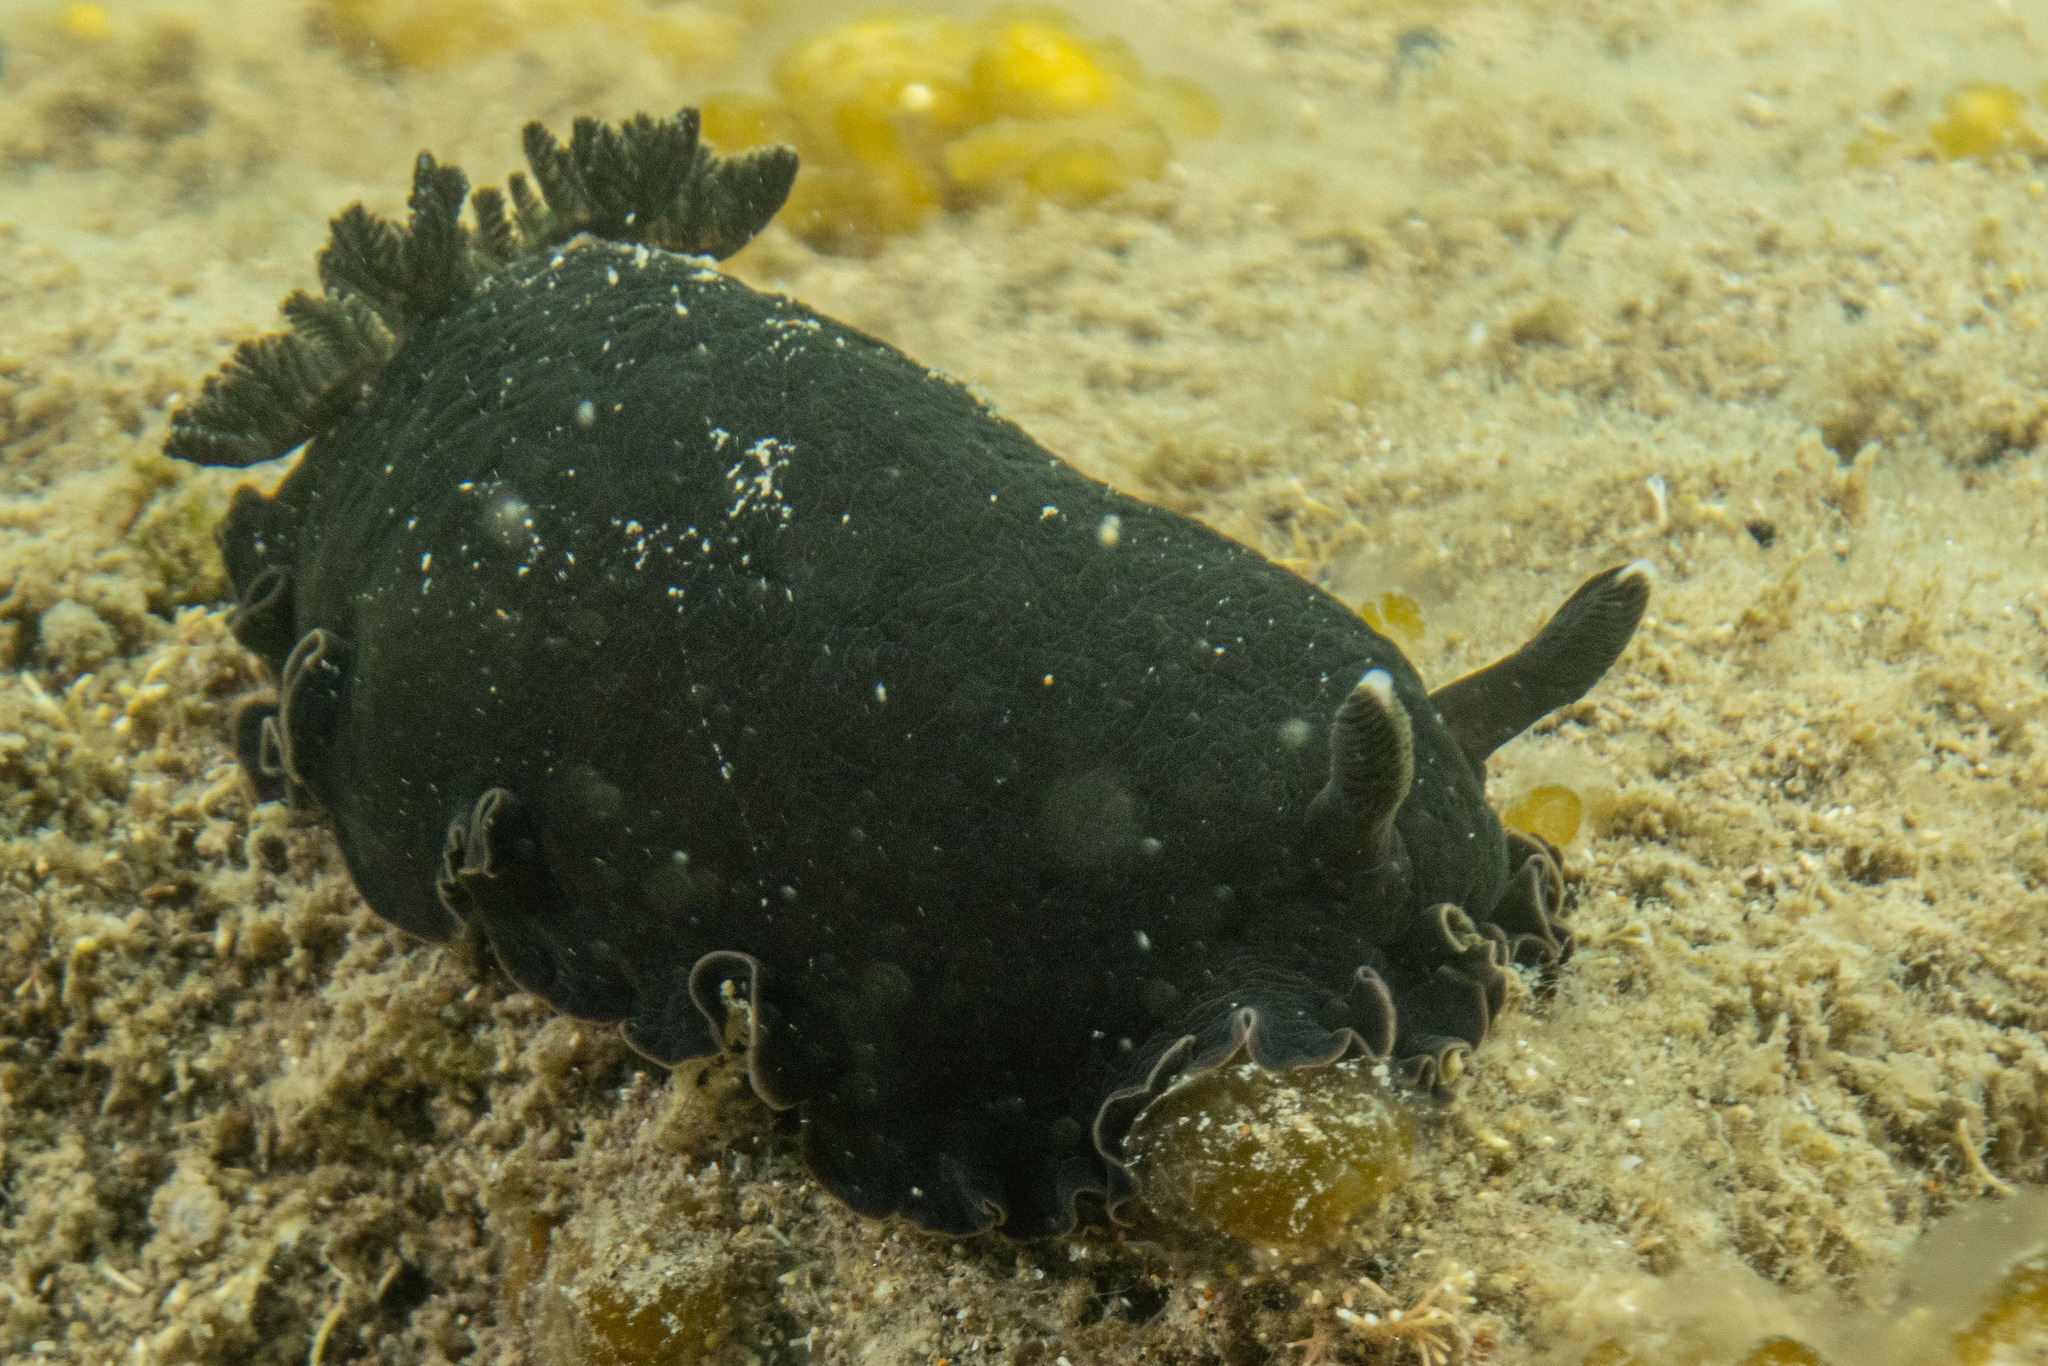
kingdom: Animalia
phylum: Mollusca
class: Gastropoda
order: Nudibranchia
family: Dendrodorididae
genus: Dendrodoris
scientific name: Dendrodoris nigra
